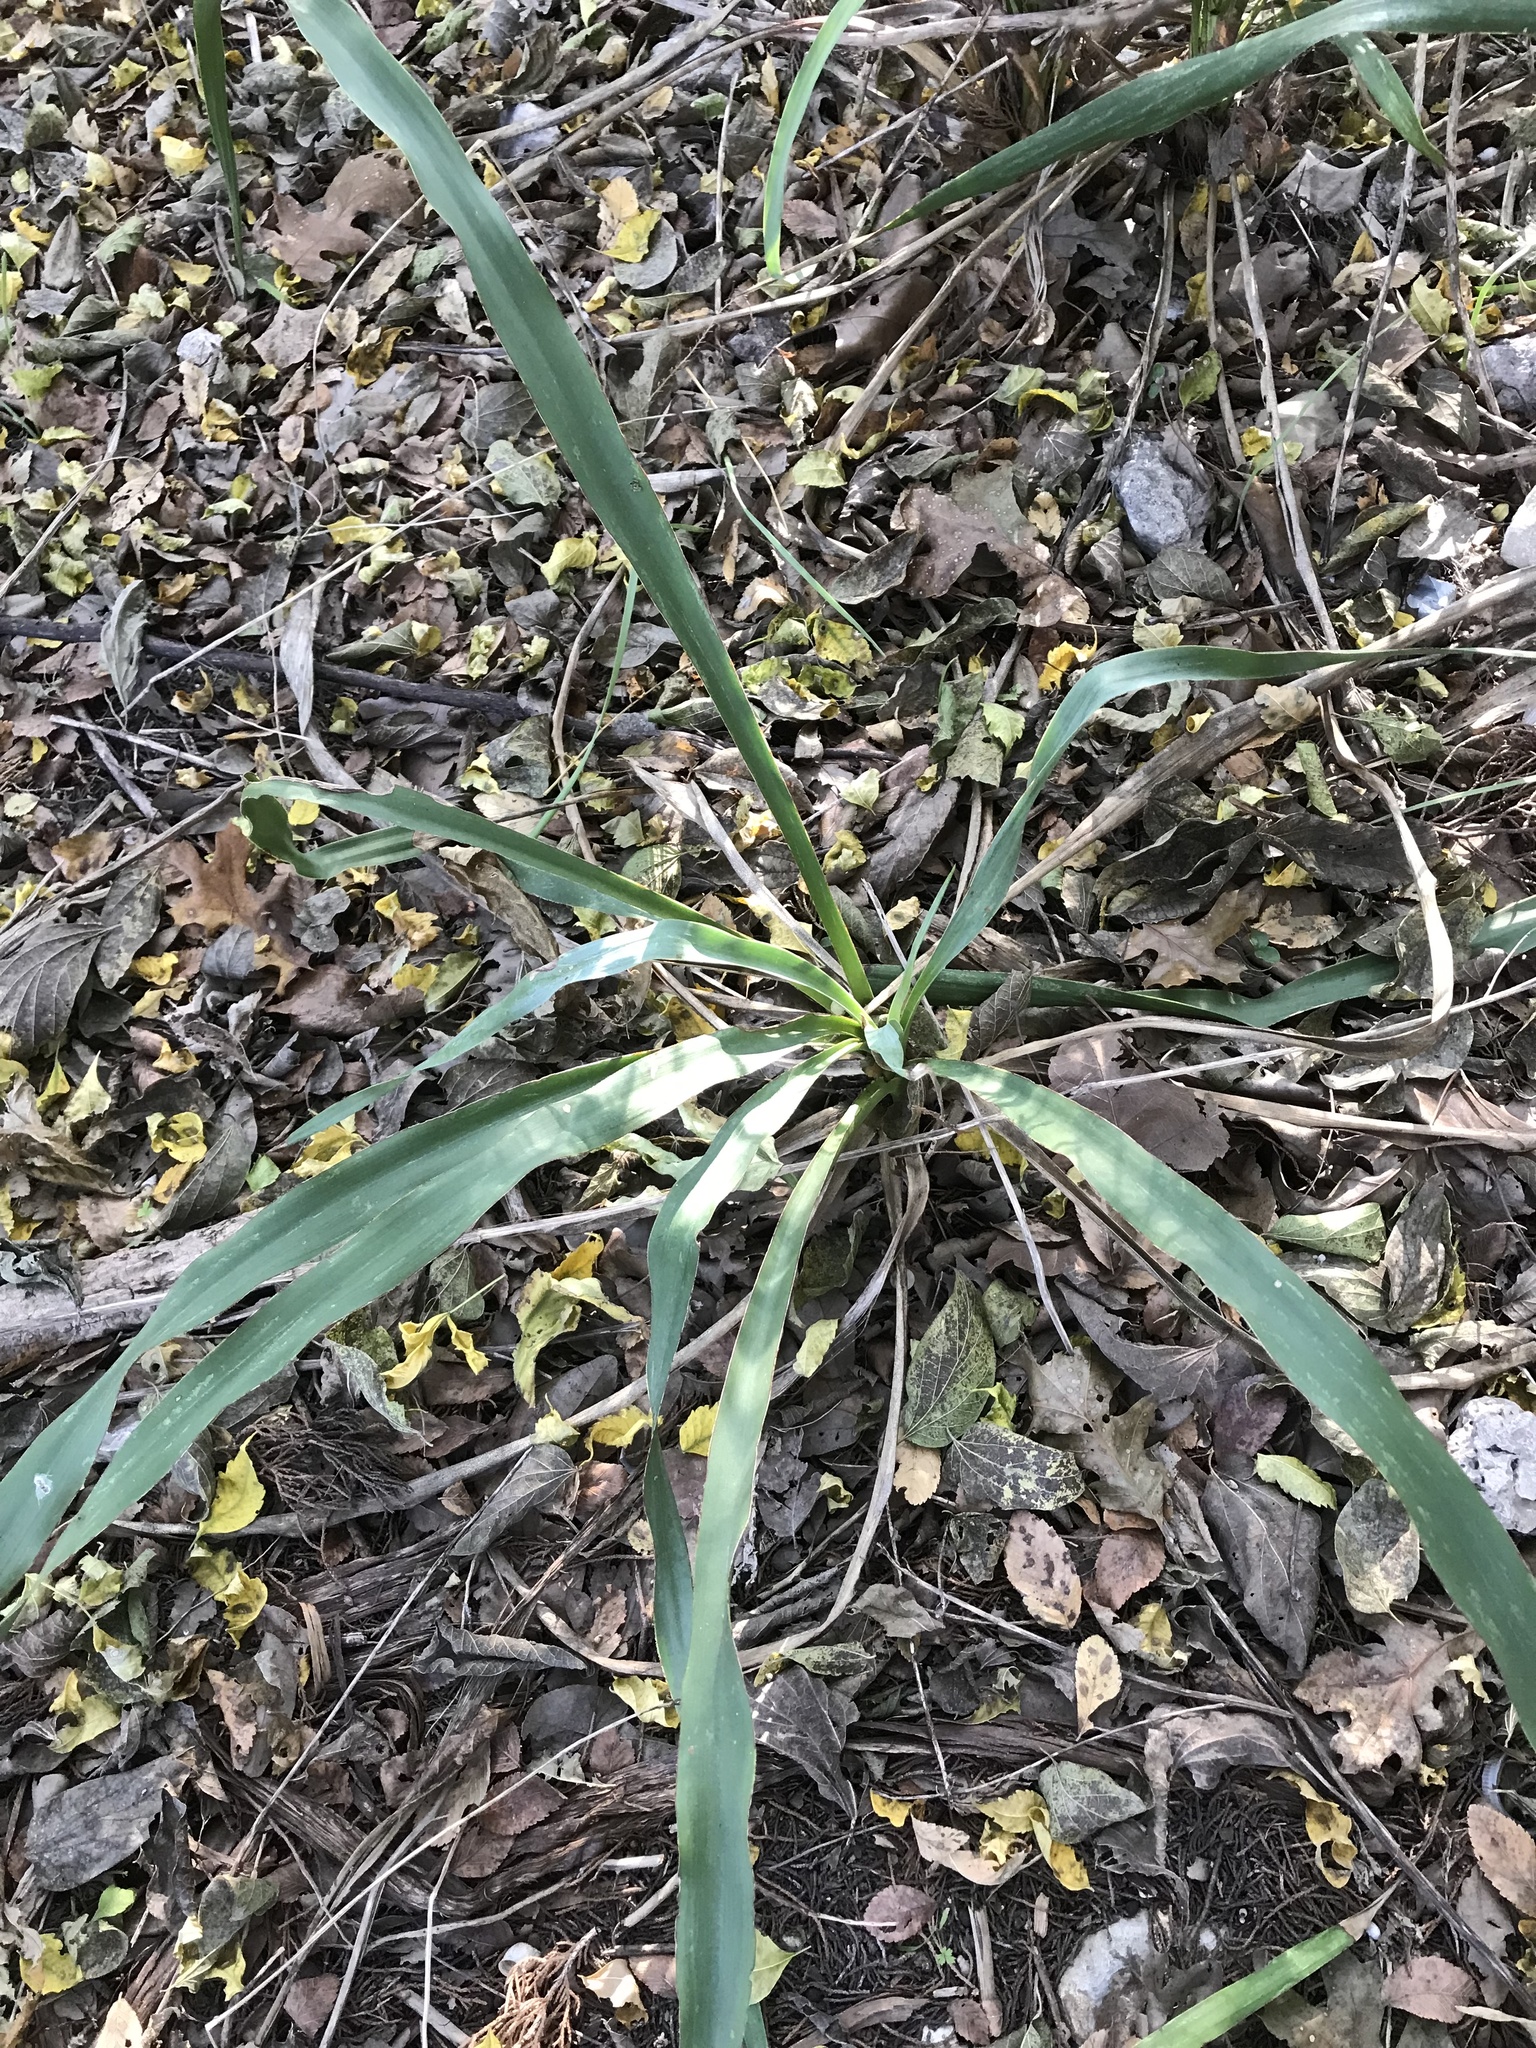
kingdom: Plantae
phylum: Tracheophyta
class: Liliopsida
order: Asparagales
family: Asparagaceae
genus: Yucca
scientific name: Yucca rupicola
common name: Twisted-leaf spanish-dagger
